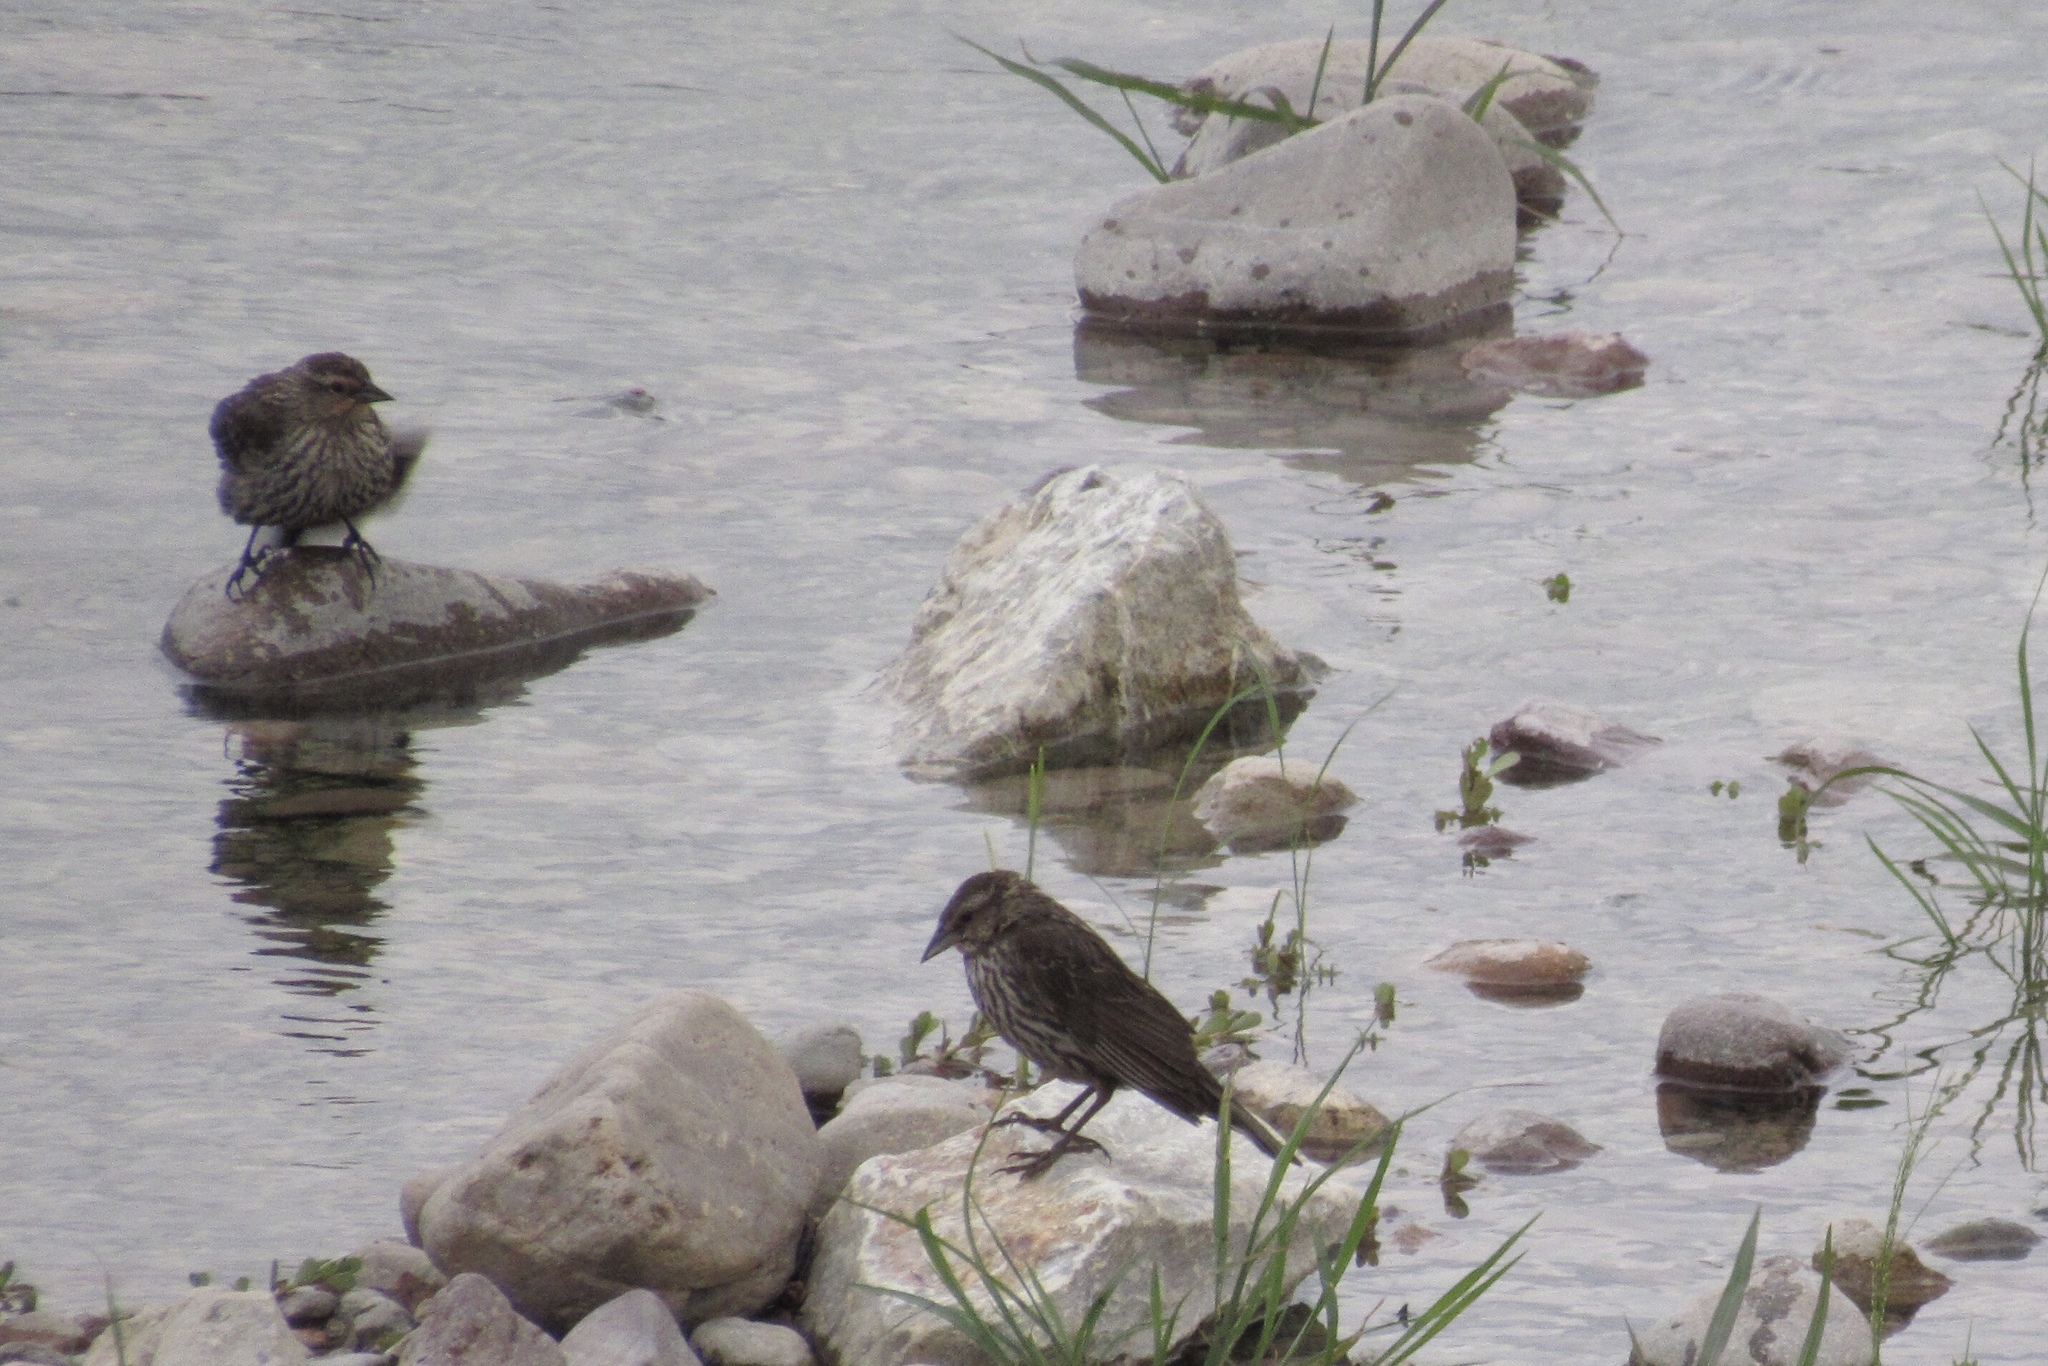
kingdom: Animalia
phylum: Chordata
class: Aves
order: Passeriformes
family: Icteridae
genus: Agelaius
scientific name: Agelaius phoeniceus
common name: Red-winged blackbird
